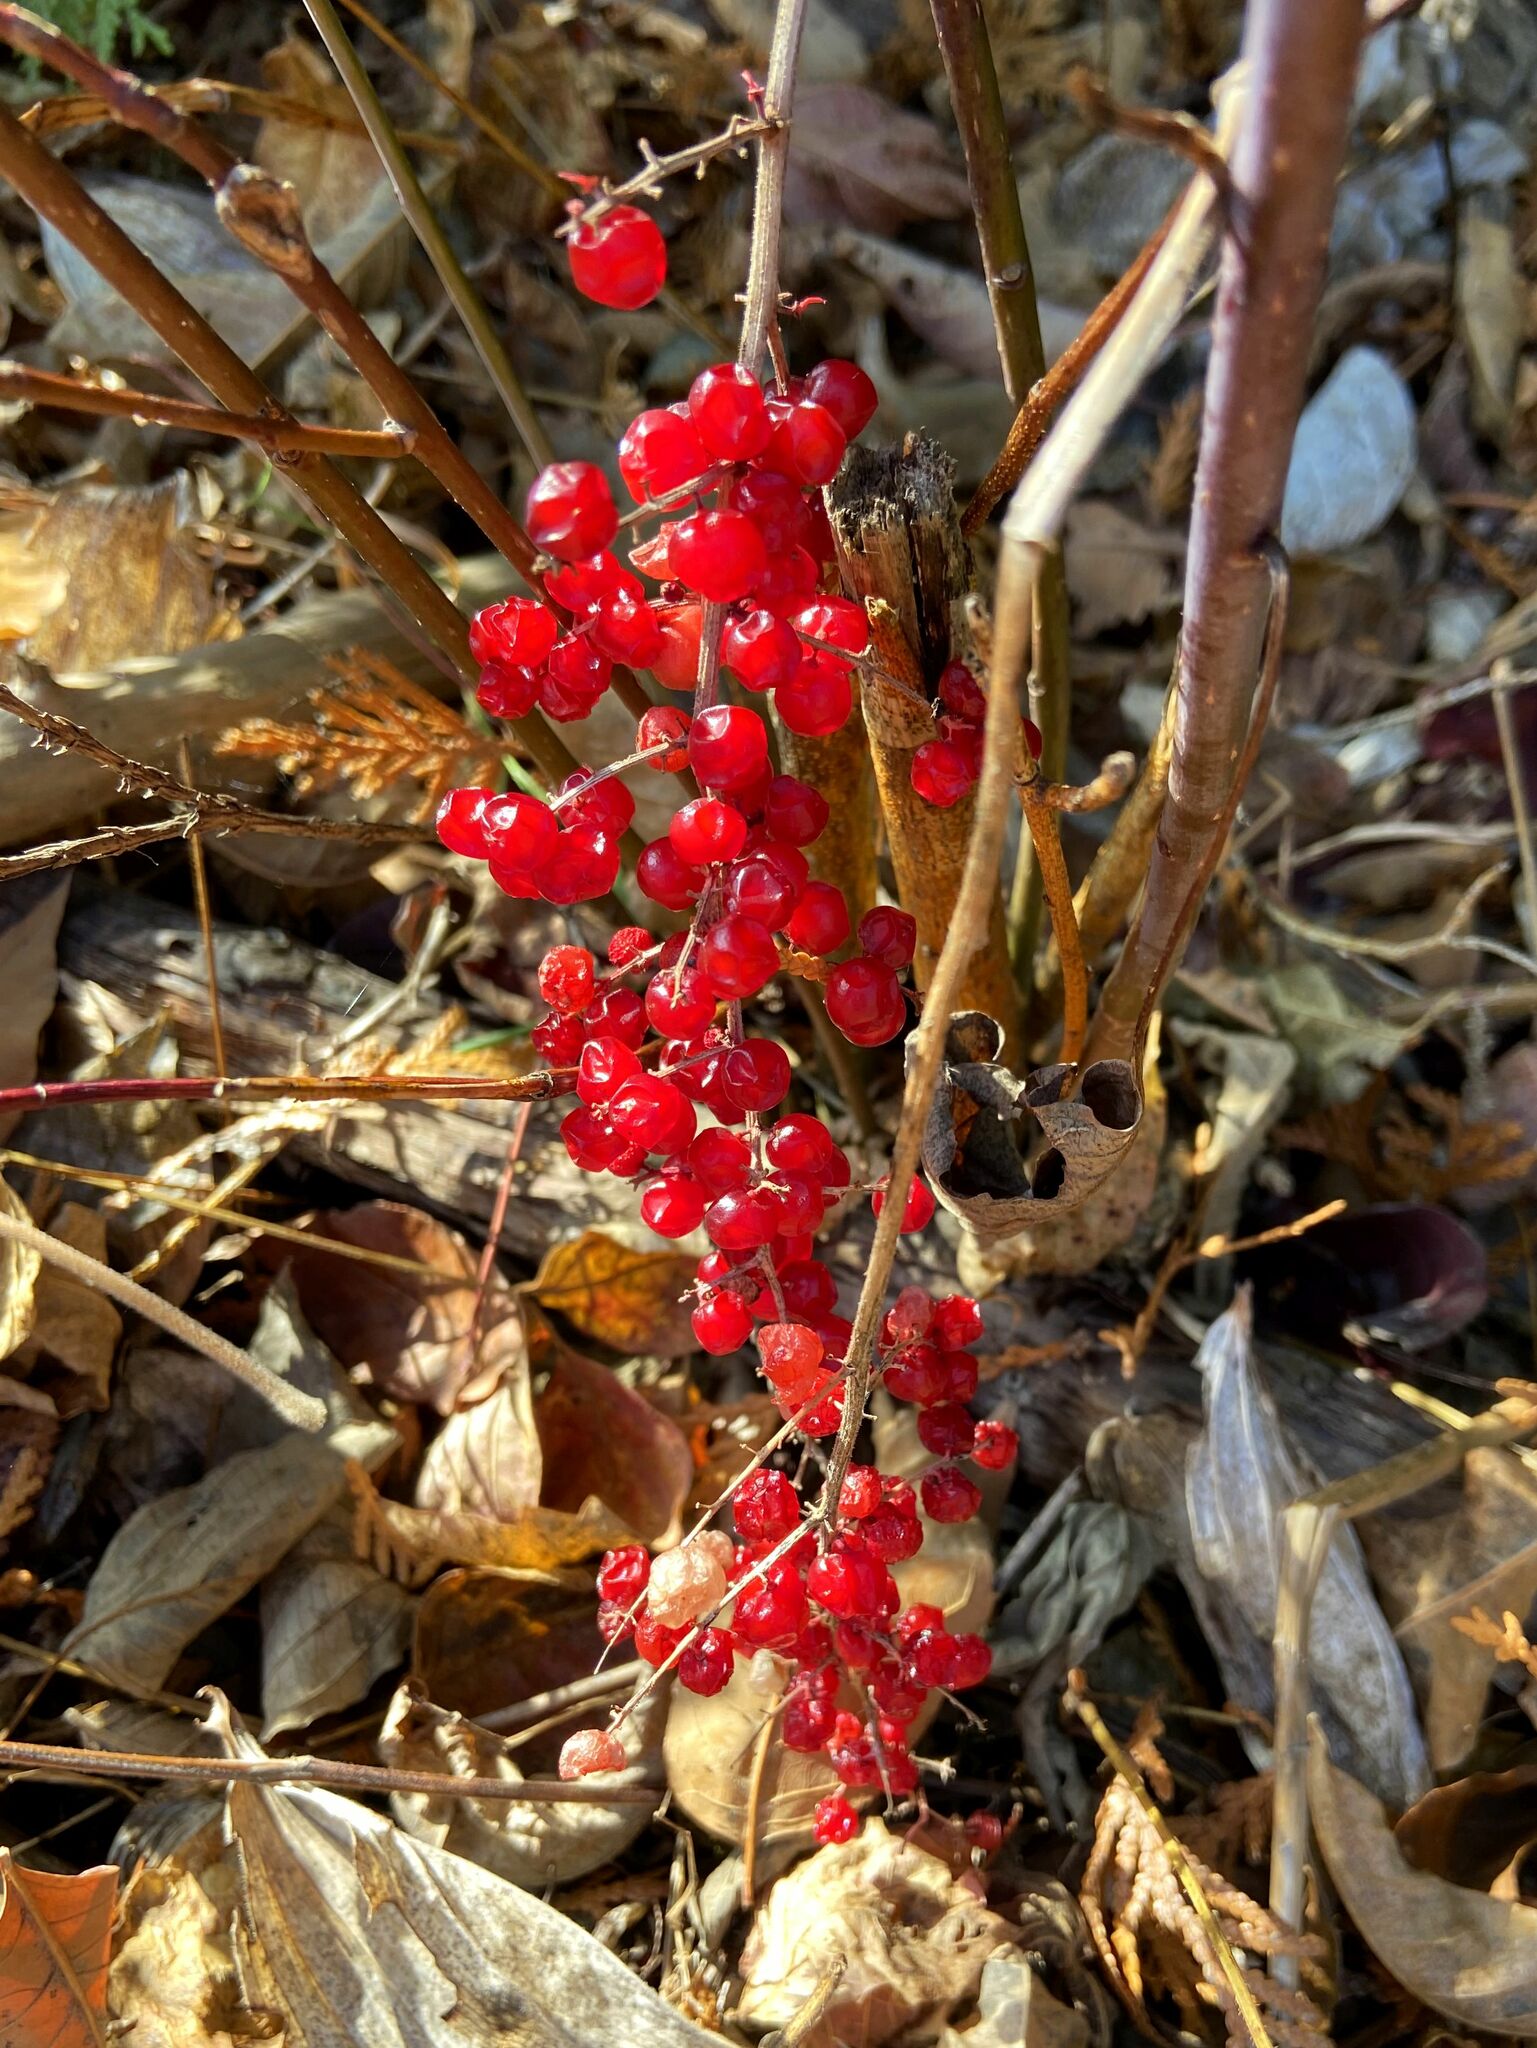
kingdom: Plantae
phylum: Tracheophyta
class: Liliopsida
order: Asparagales
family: Asparagaceae
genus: Maianthemum
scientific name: Maianthemum racemosum
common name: False spikenard
